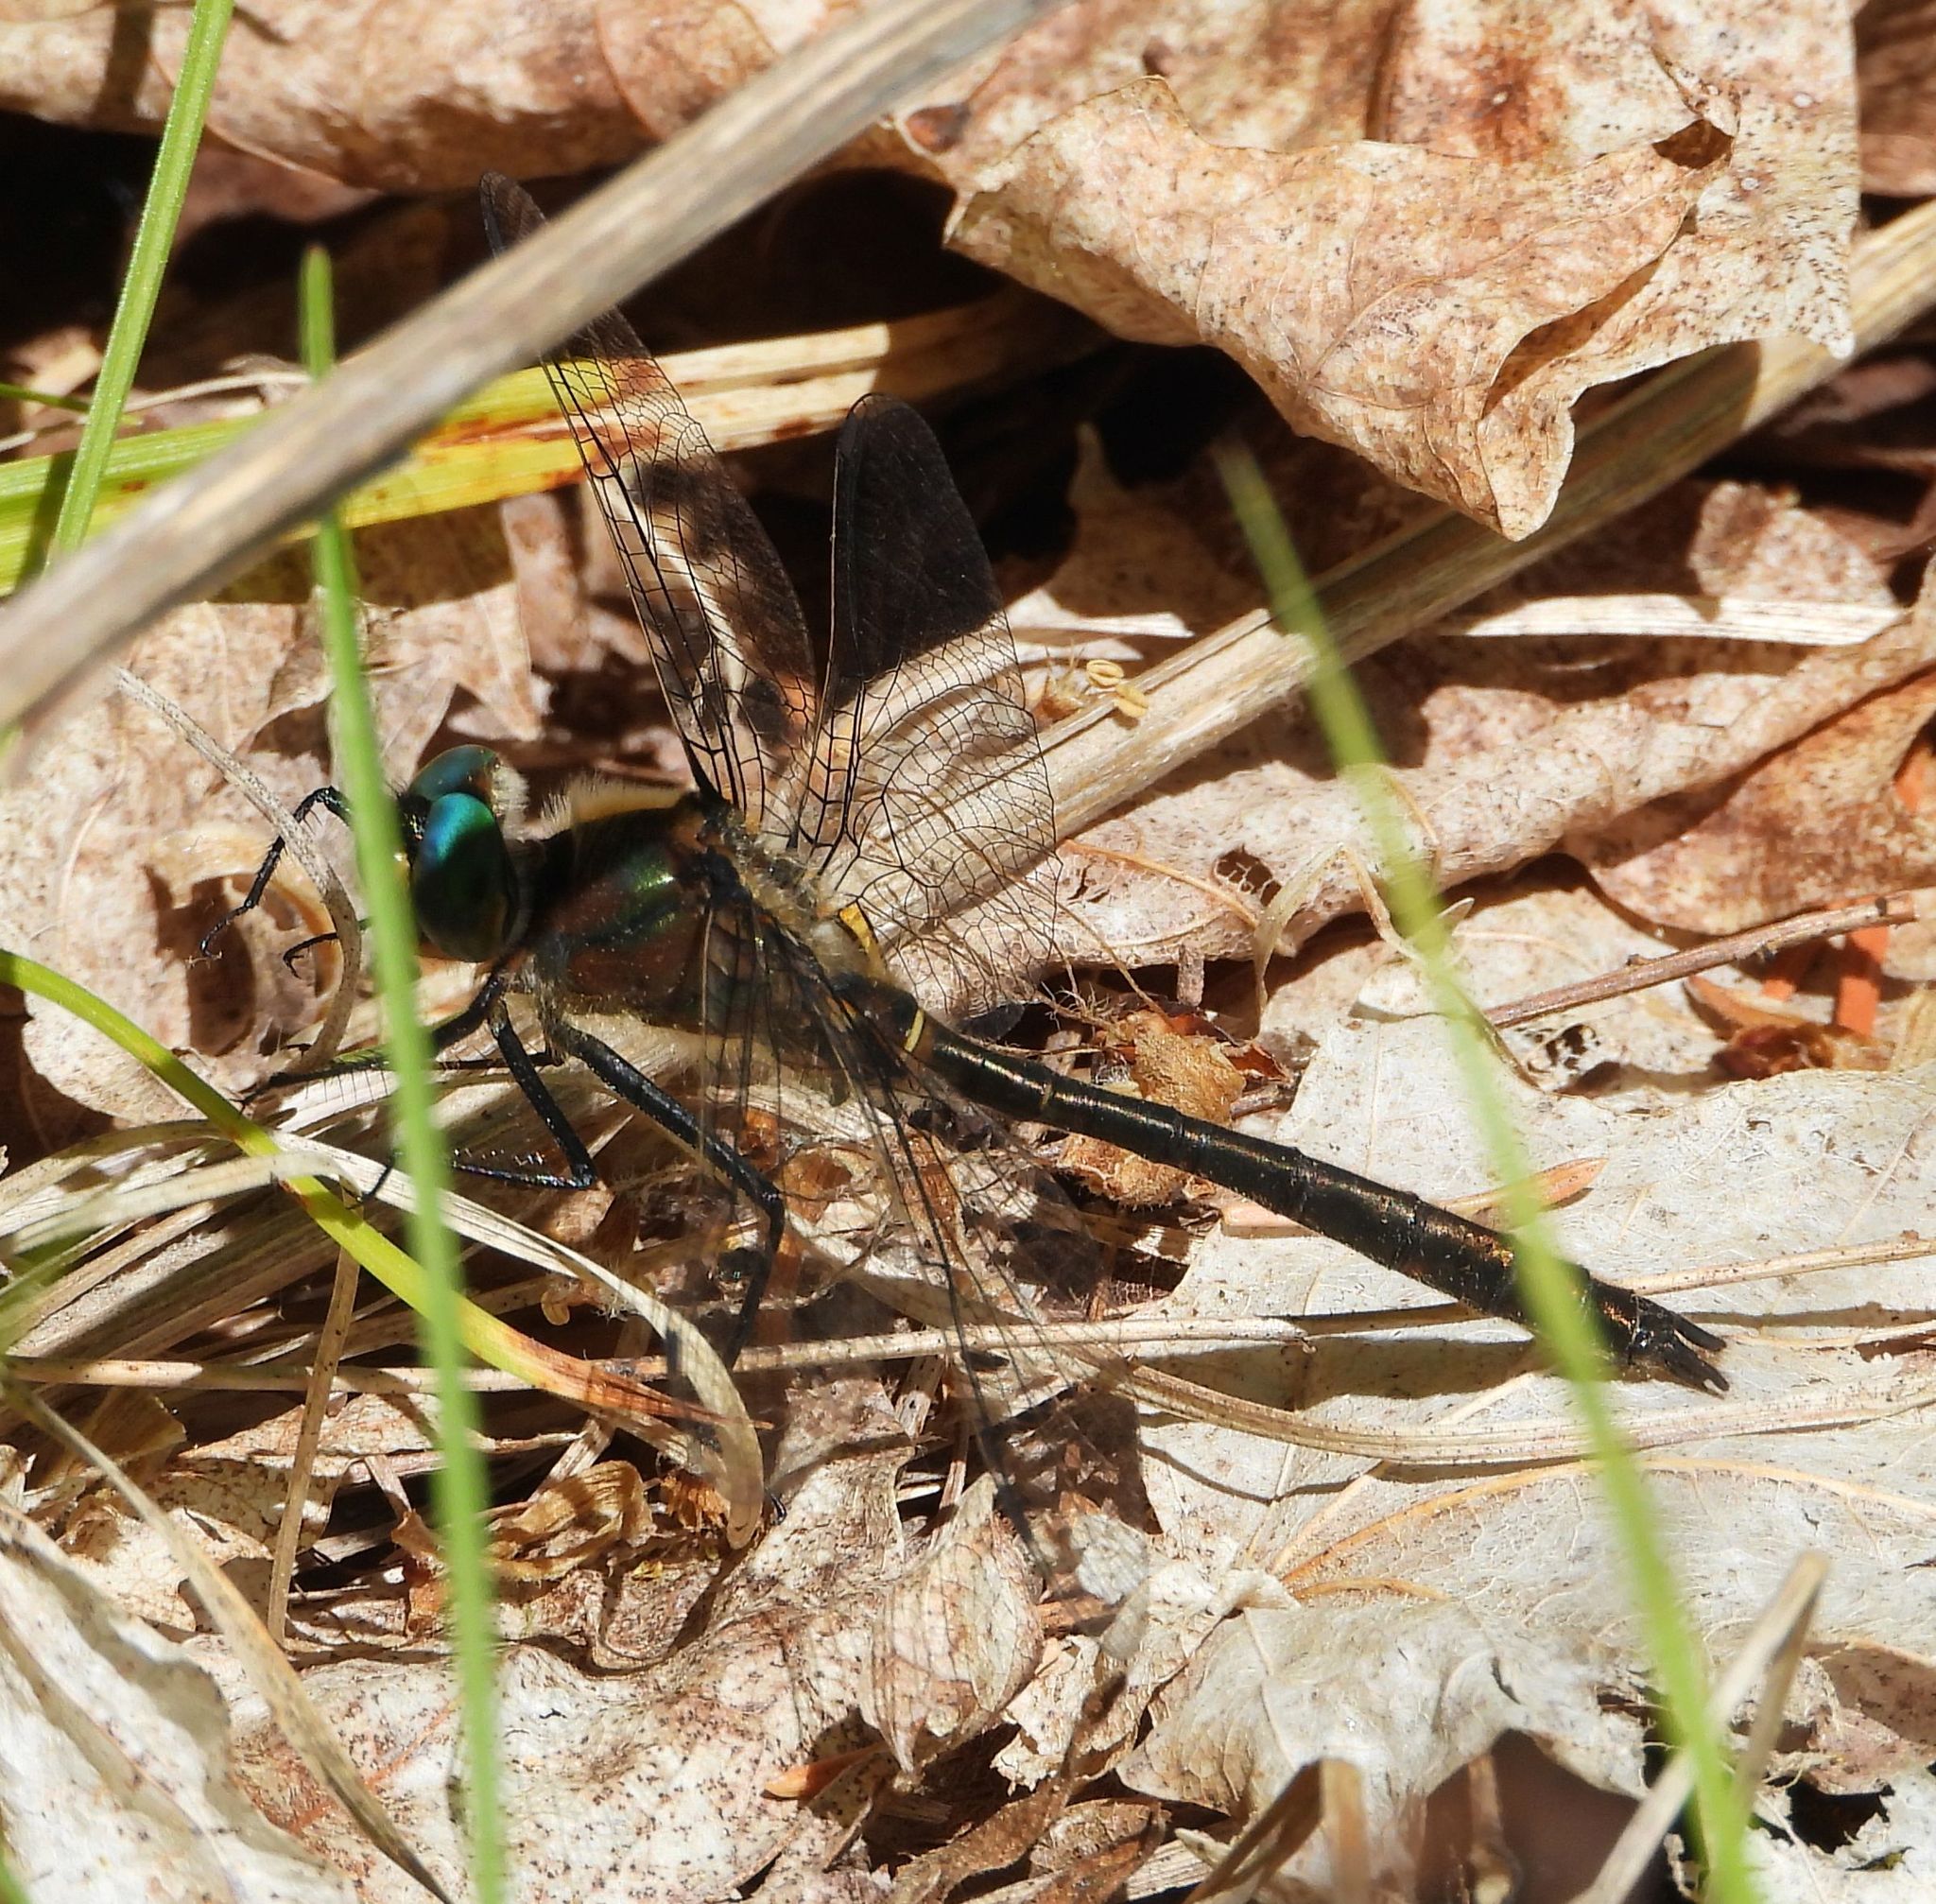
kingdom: Animalia
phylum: Arthropoda
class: Insecta
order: Odonata
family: Corduliidae
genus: Cordulia
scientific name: Cordulia shurtleffii
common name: American emerald
